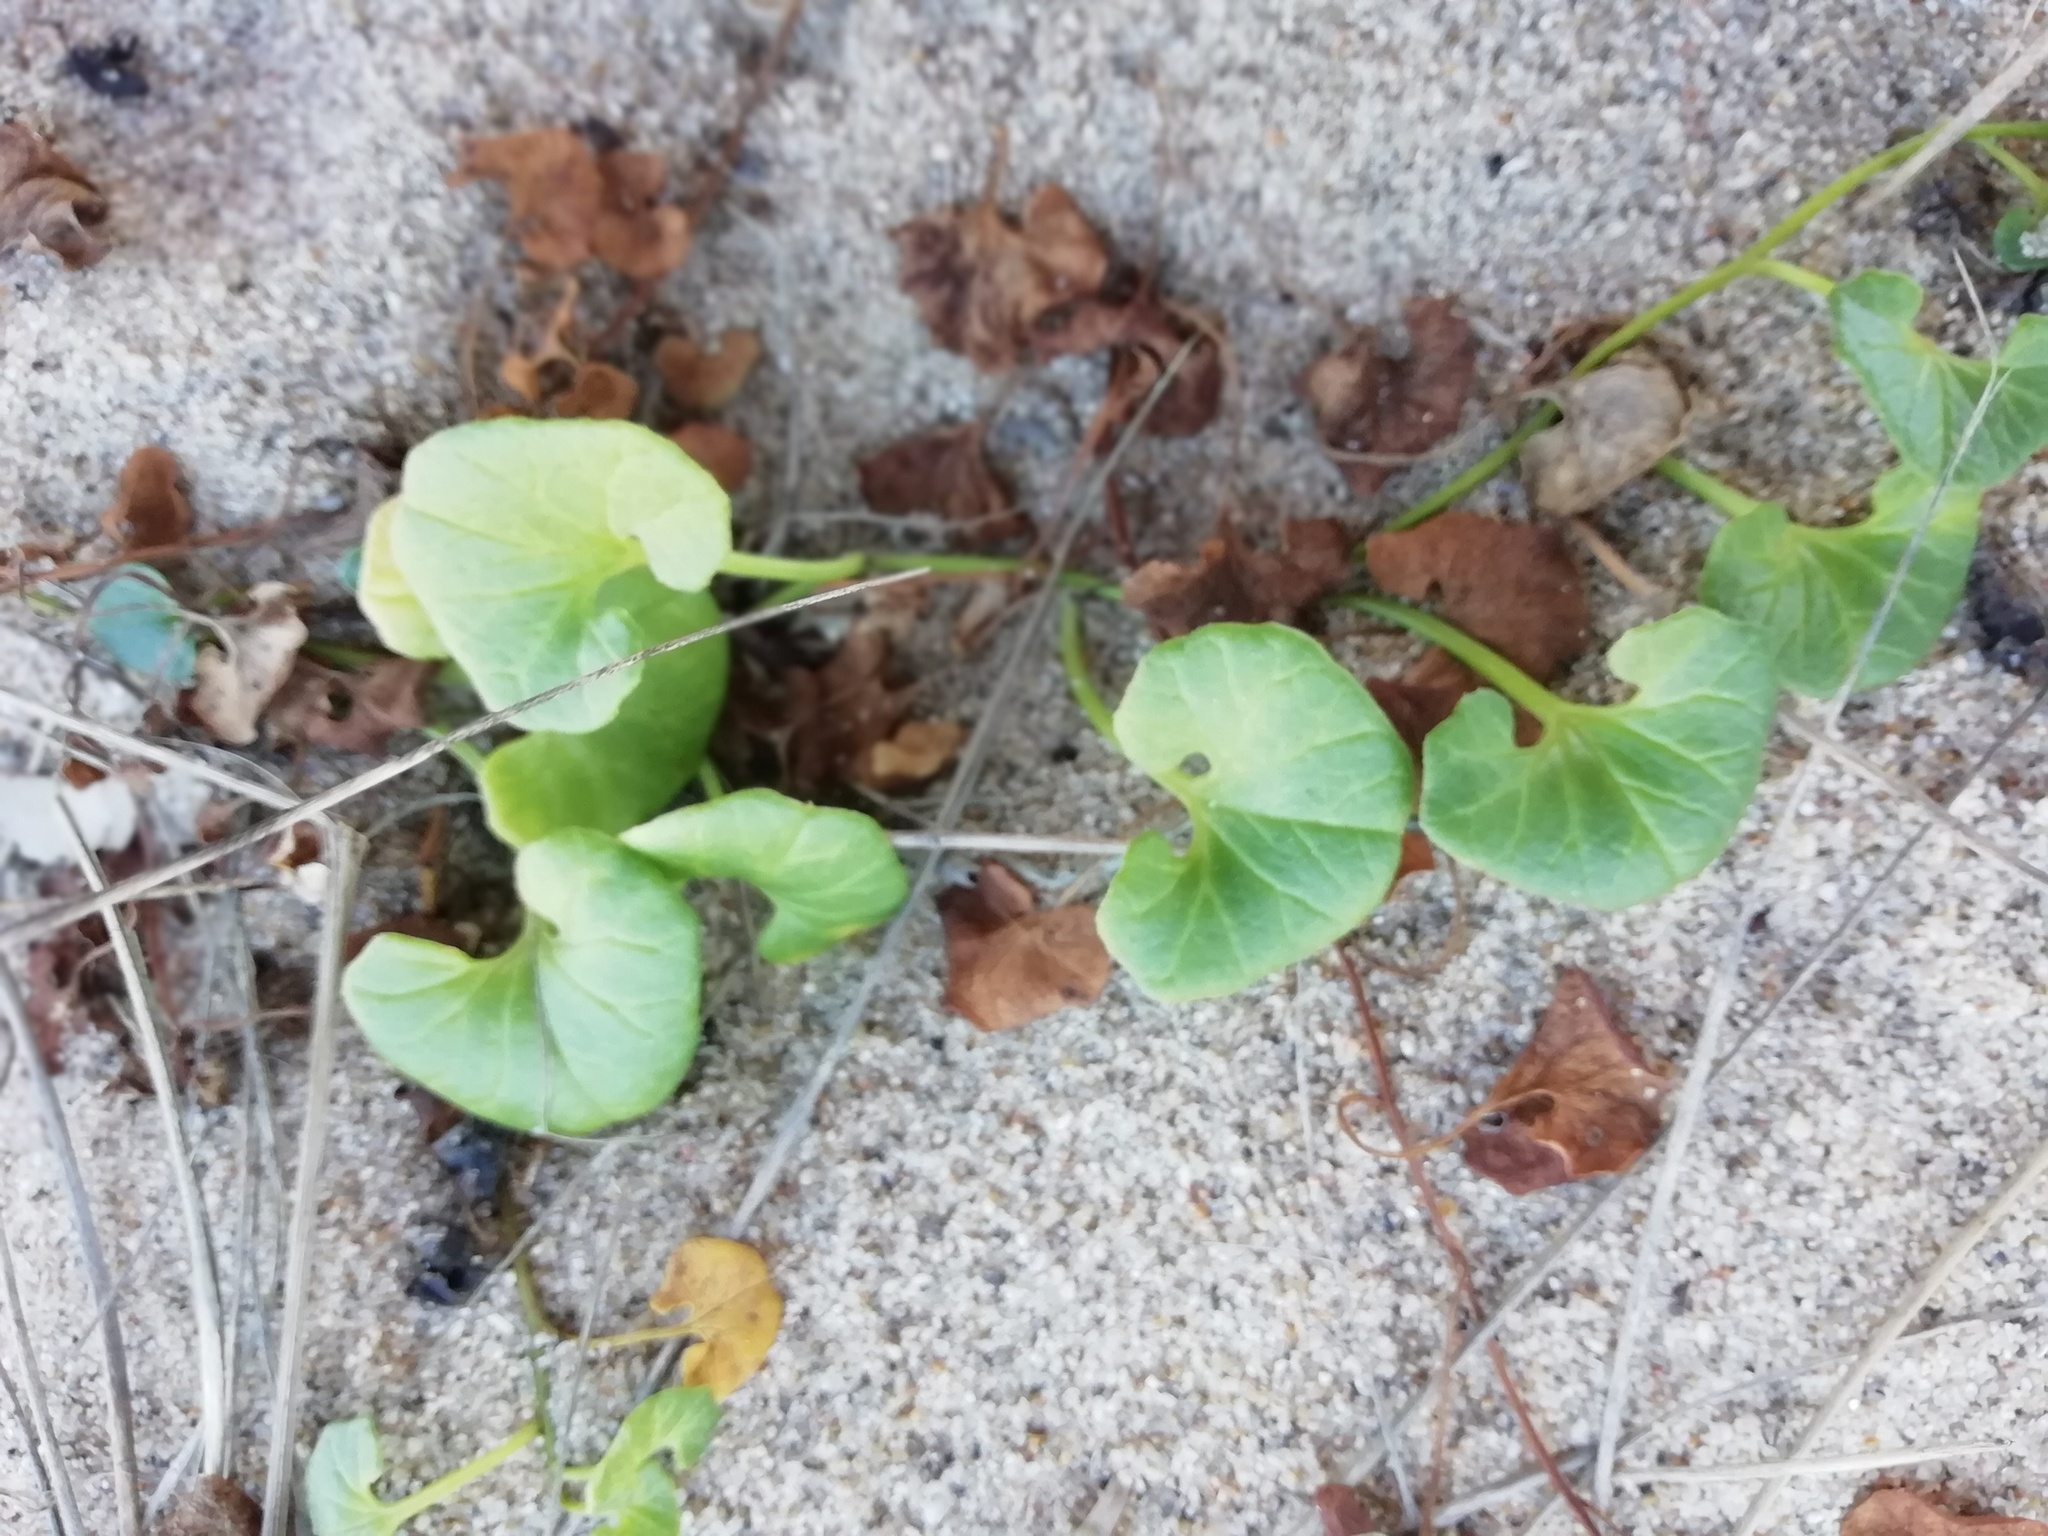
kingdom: Plantae
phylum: Tracheophyta
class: Magnoliopsida
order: Solanales
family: Convolvulaceae
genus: Calystegia
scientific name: Calystegia soldanella
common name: Sea bindweed
